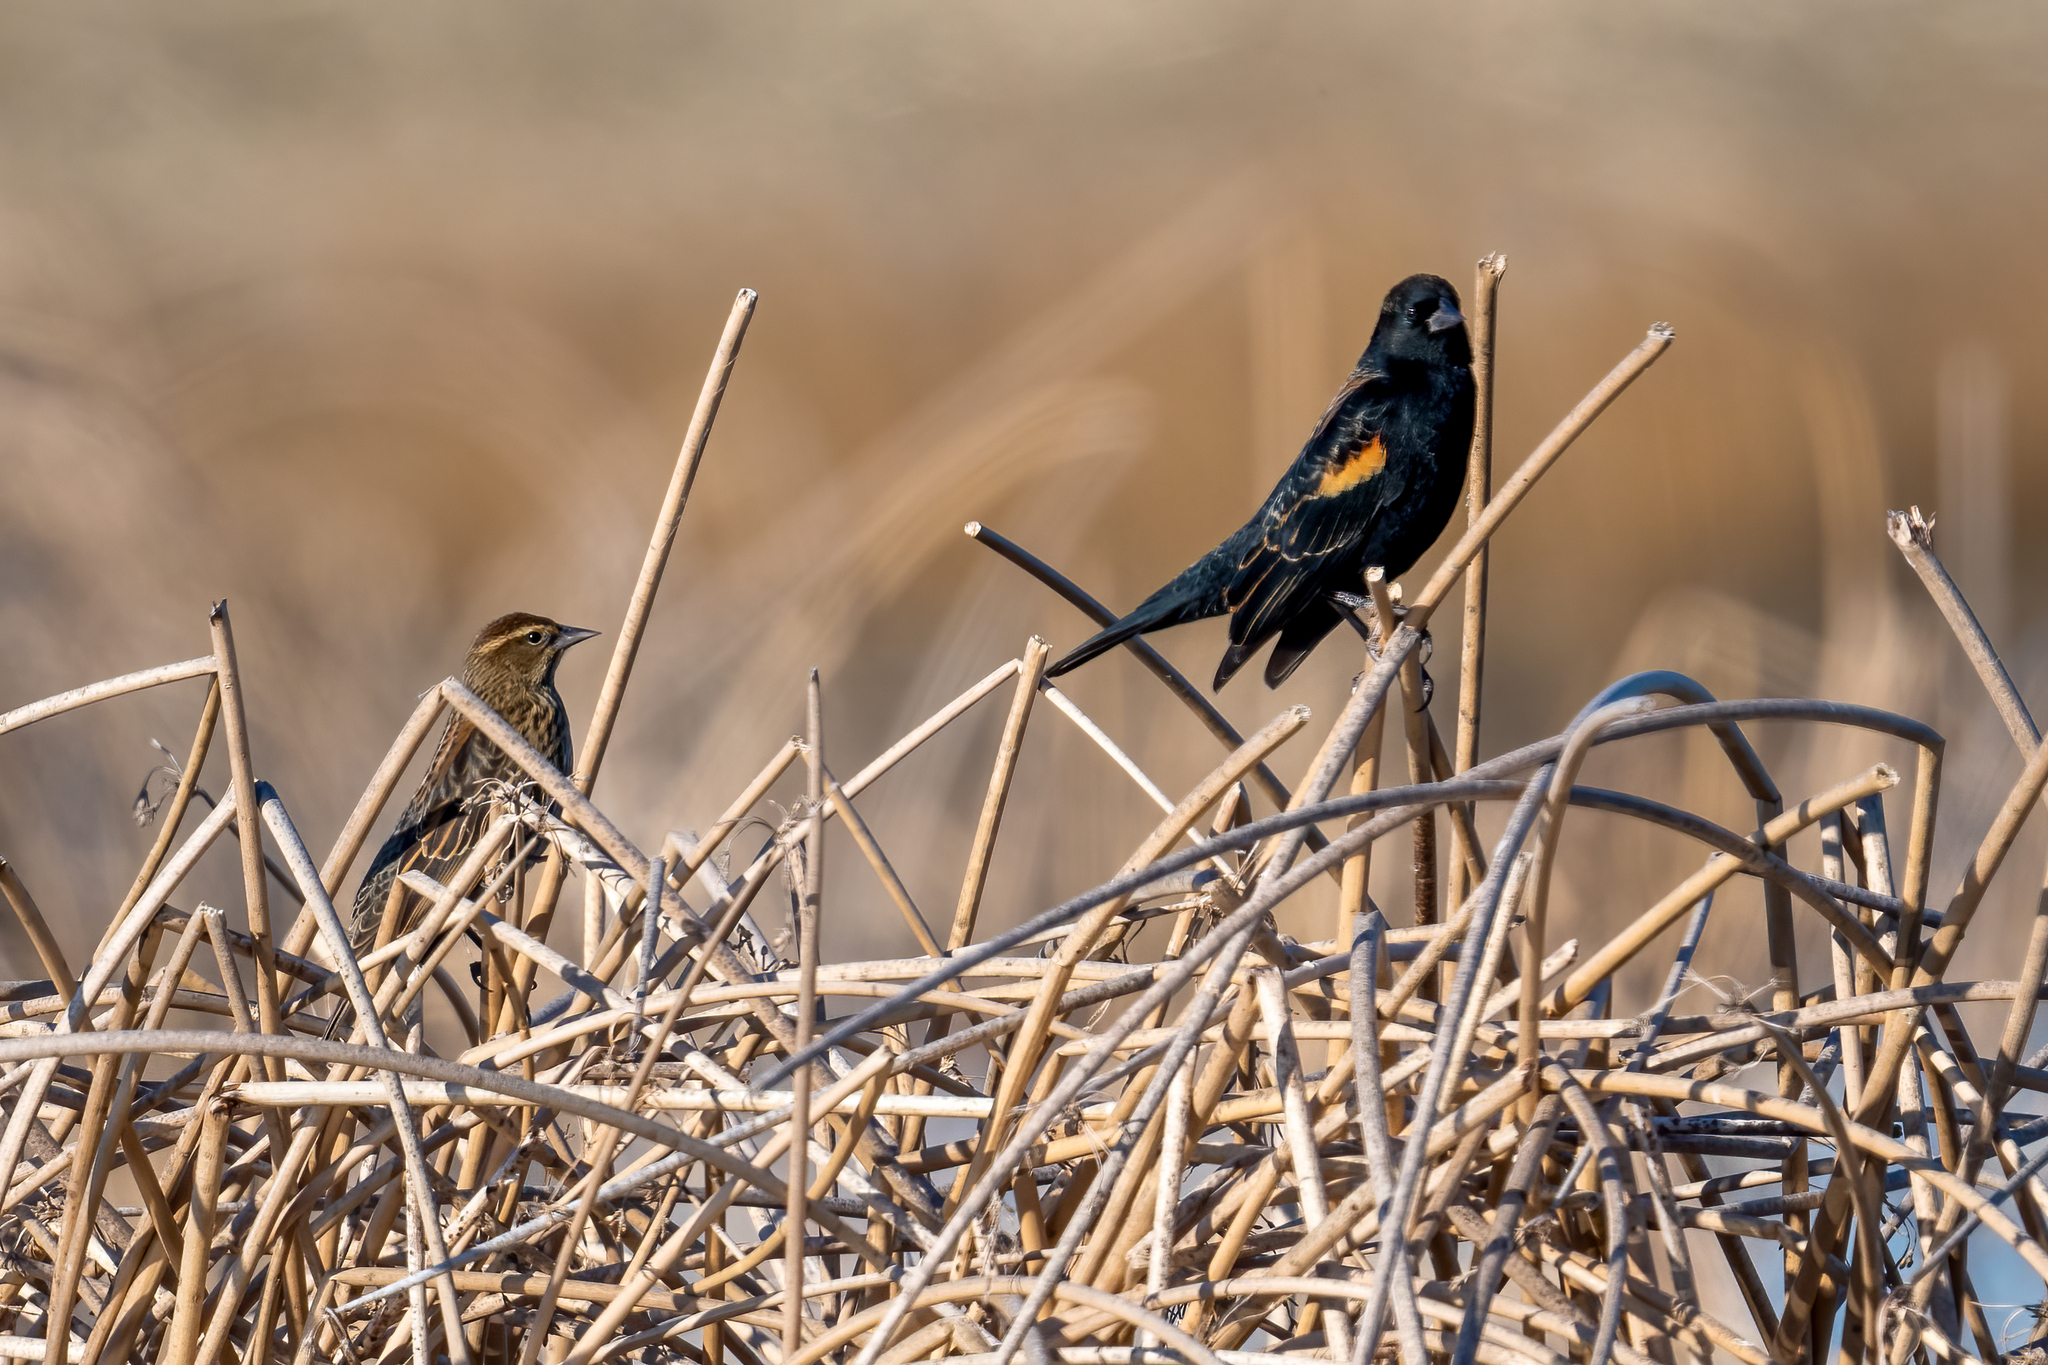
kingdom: Animalia
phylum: Chordata
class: Aves
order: Passeriformes
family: Icteridae
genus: Agelaius
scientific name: Agelaius phoeniceus
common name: Red-winged blackbird
